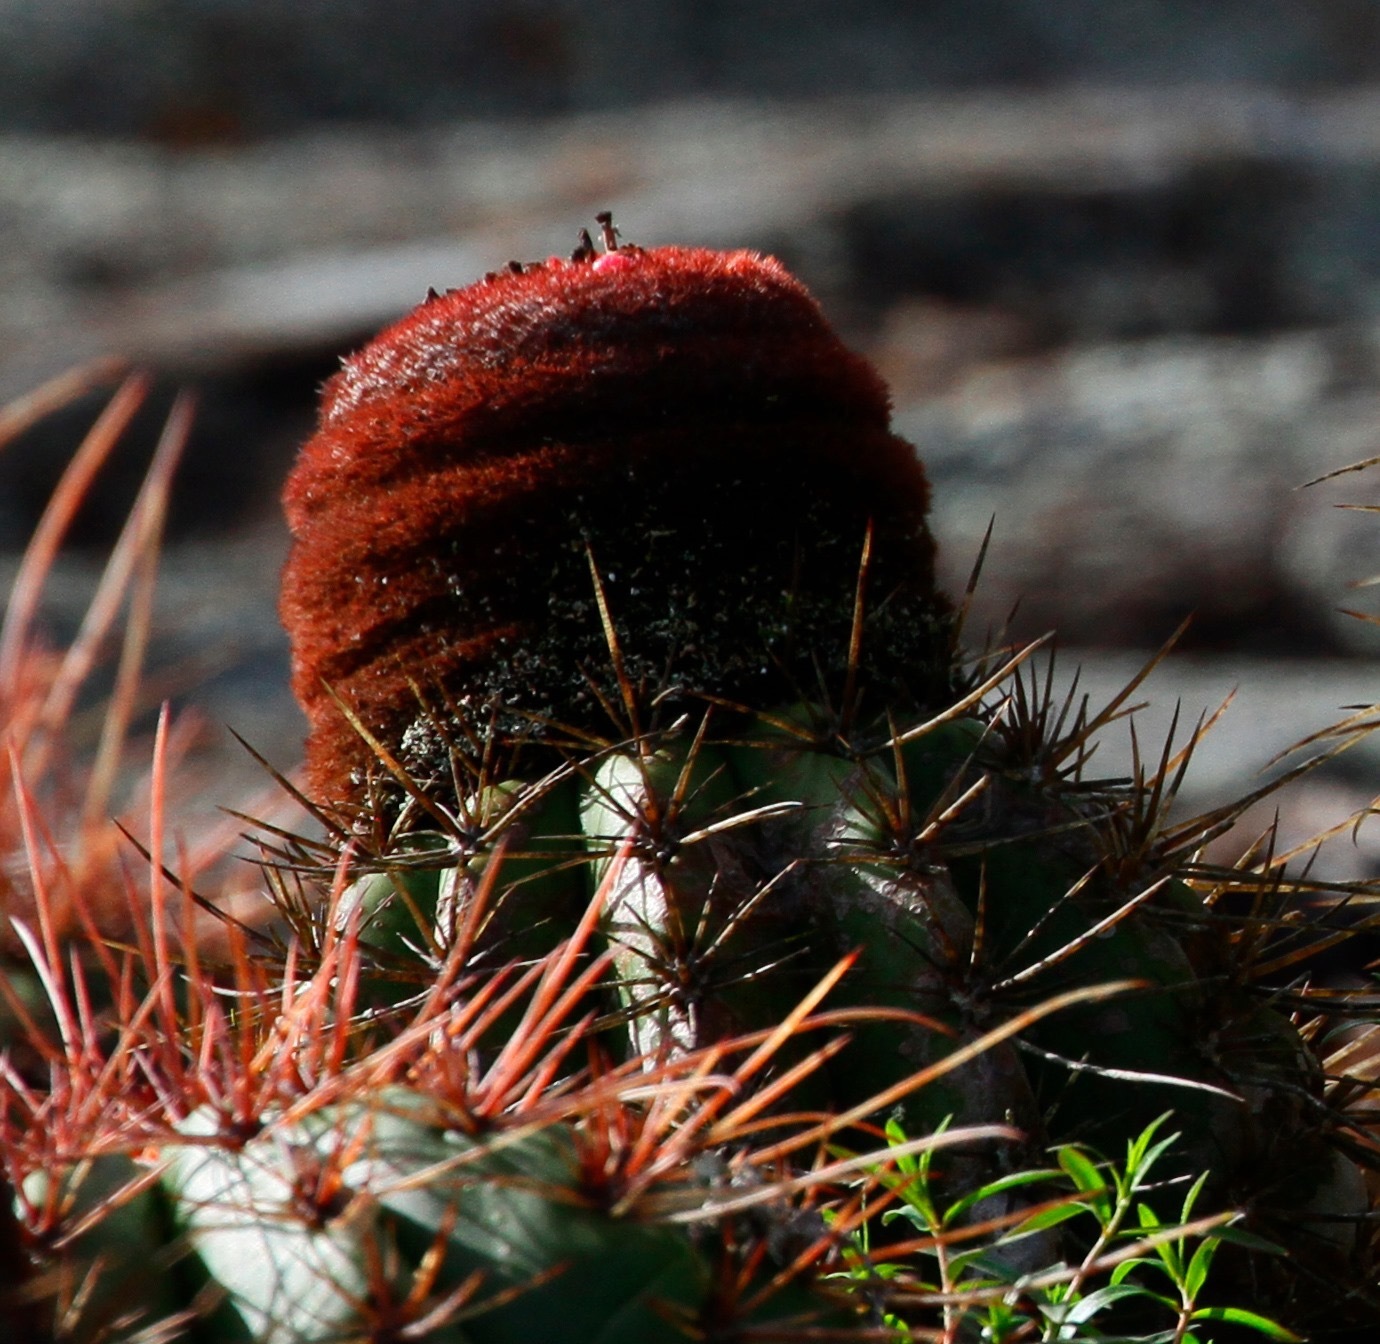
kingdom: Plantae
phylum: Tracheophyta
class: Magnoliopsida
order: Caryophyllales
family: Cactaceae
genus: Melocactus
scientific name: Melocactus ernestii
